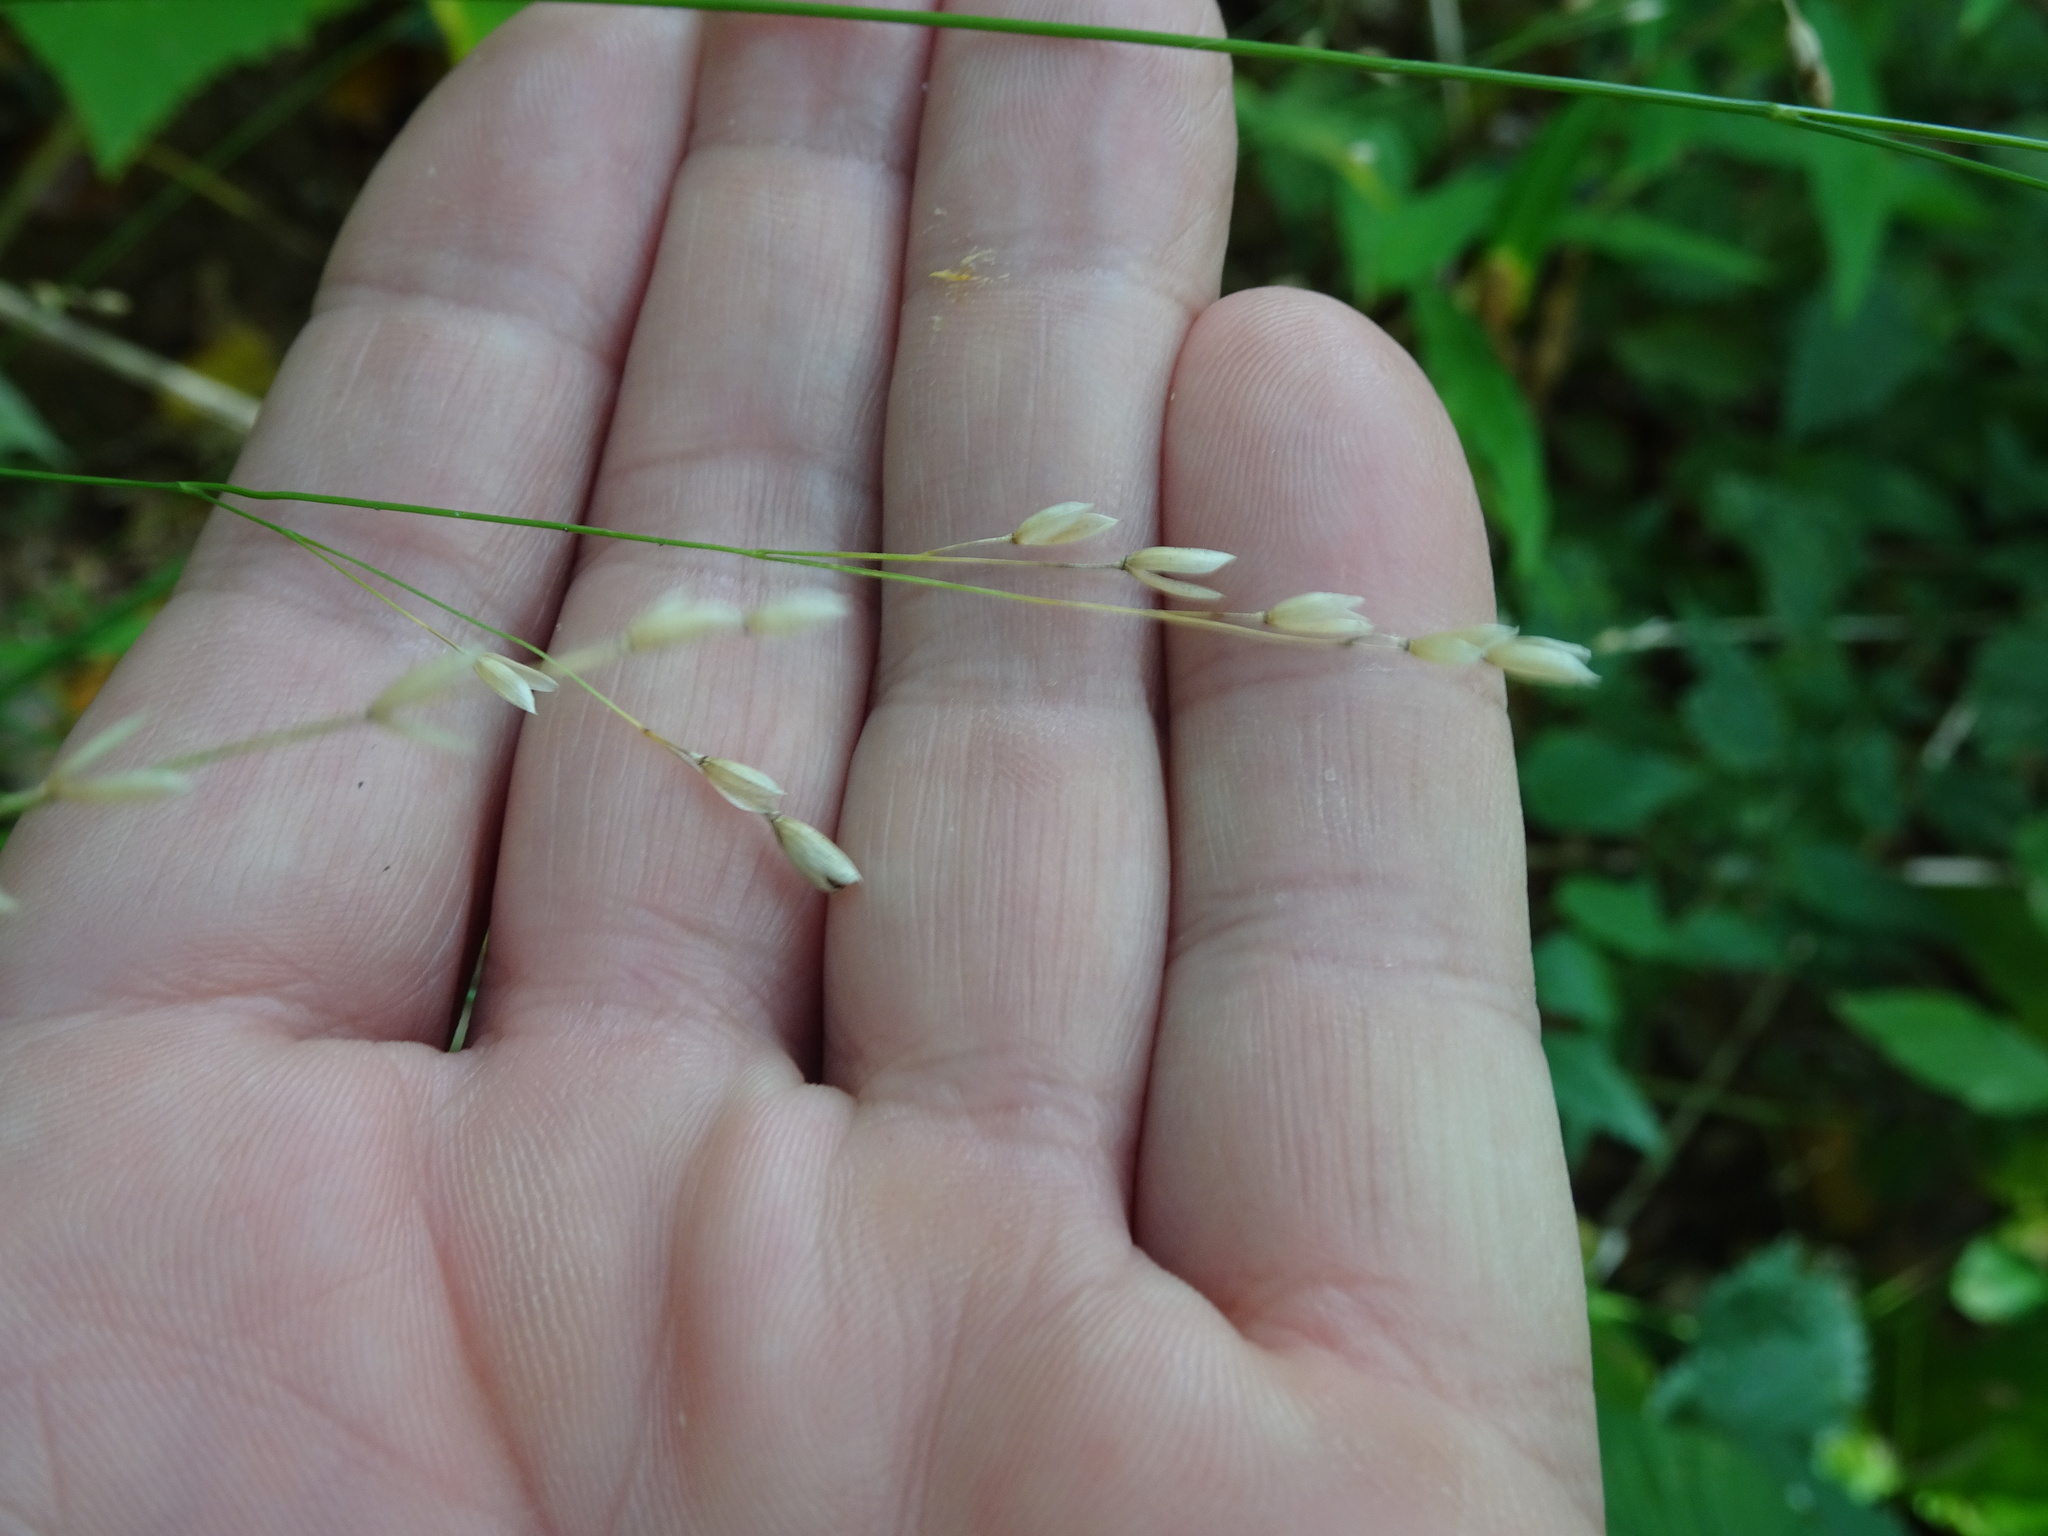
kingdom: Plantae
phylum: Tracheophyta
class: Liliopsida
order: Poales
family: Poaceae
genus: Melica
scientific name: Melica uniflora
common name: Wood melick
